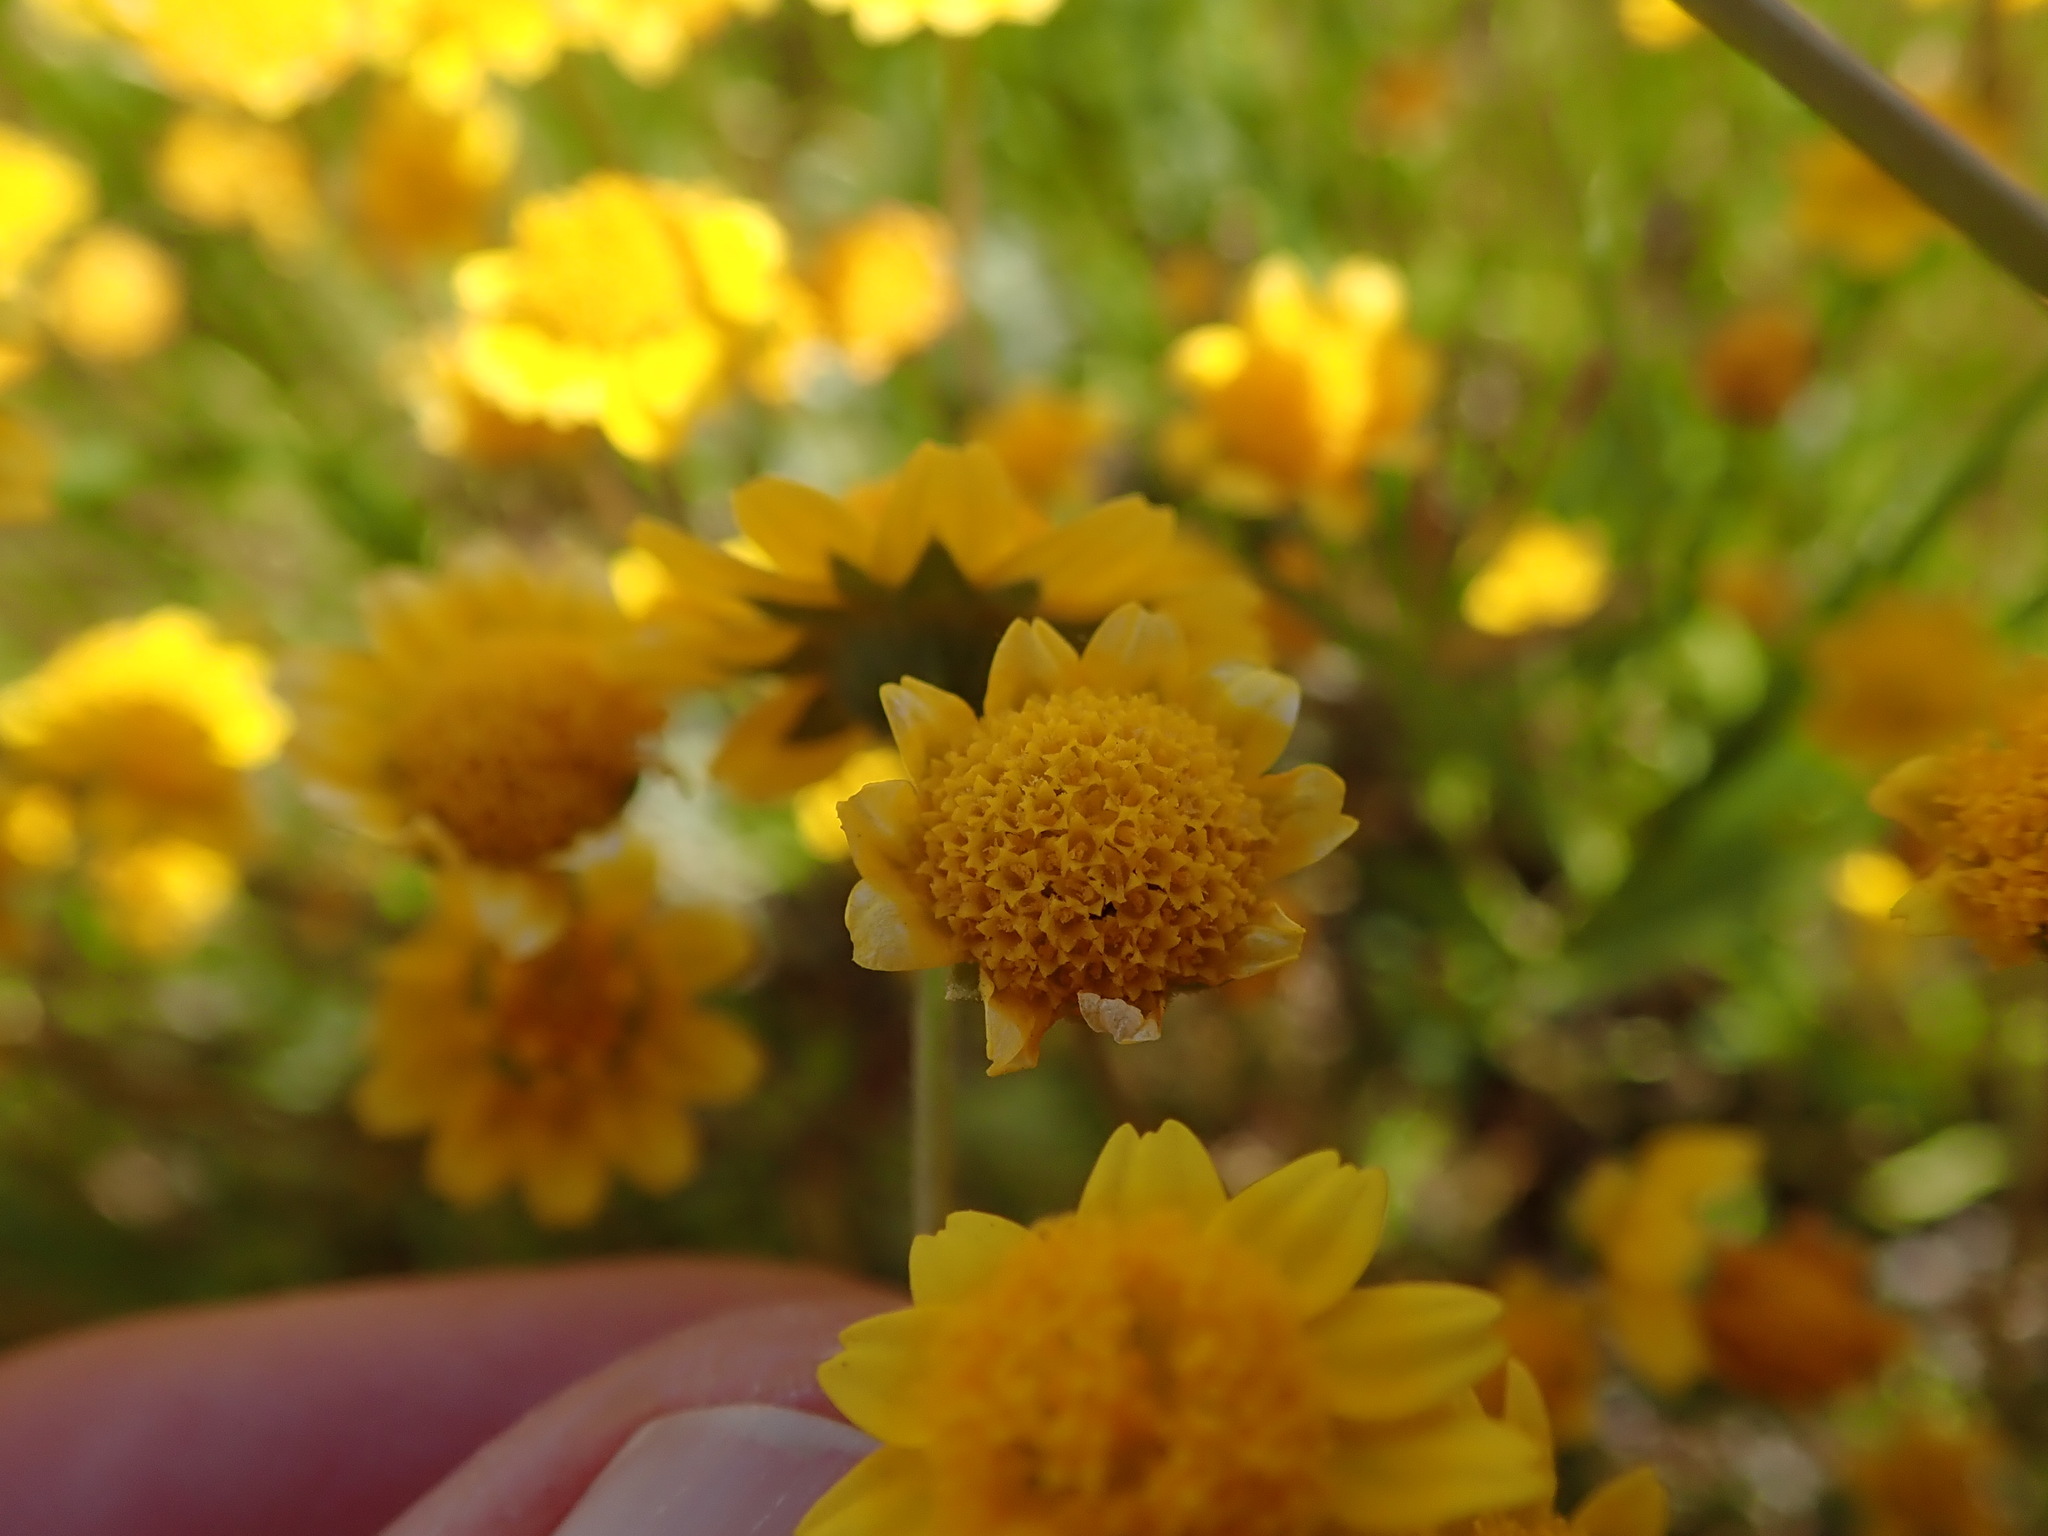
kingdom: Plantae
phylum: Tracheophyta
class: Magnoliopsida
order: Asterales
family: Asteraceae
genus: Lasthenia
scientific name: Lasthenia conjugens
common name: Contra costa goldfields
